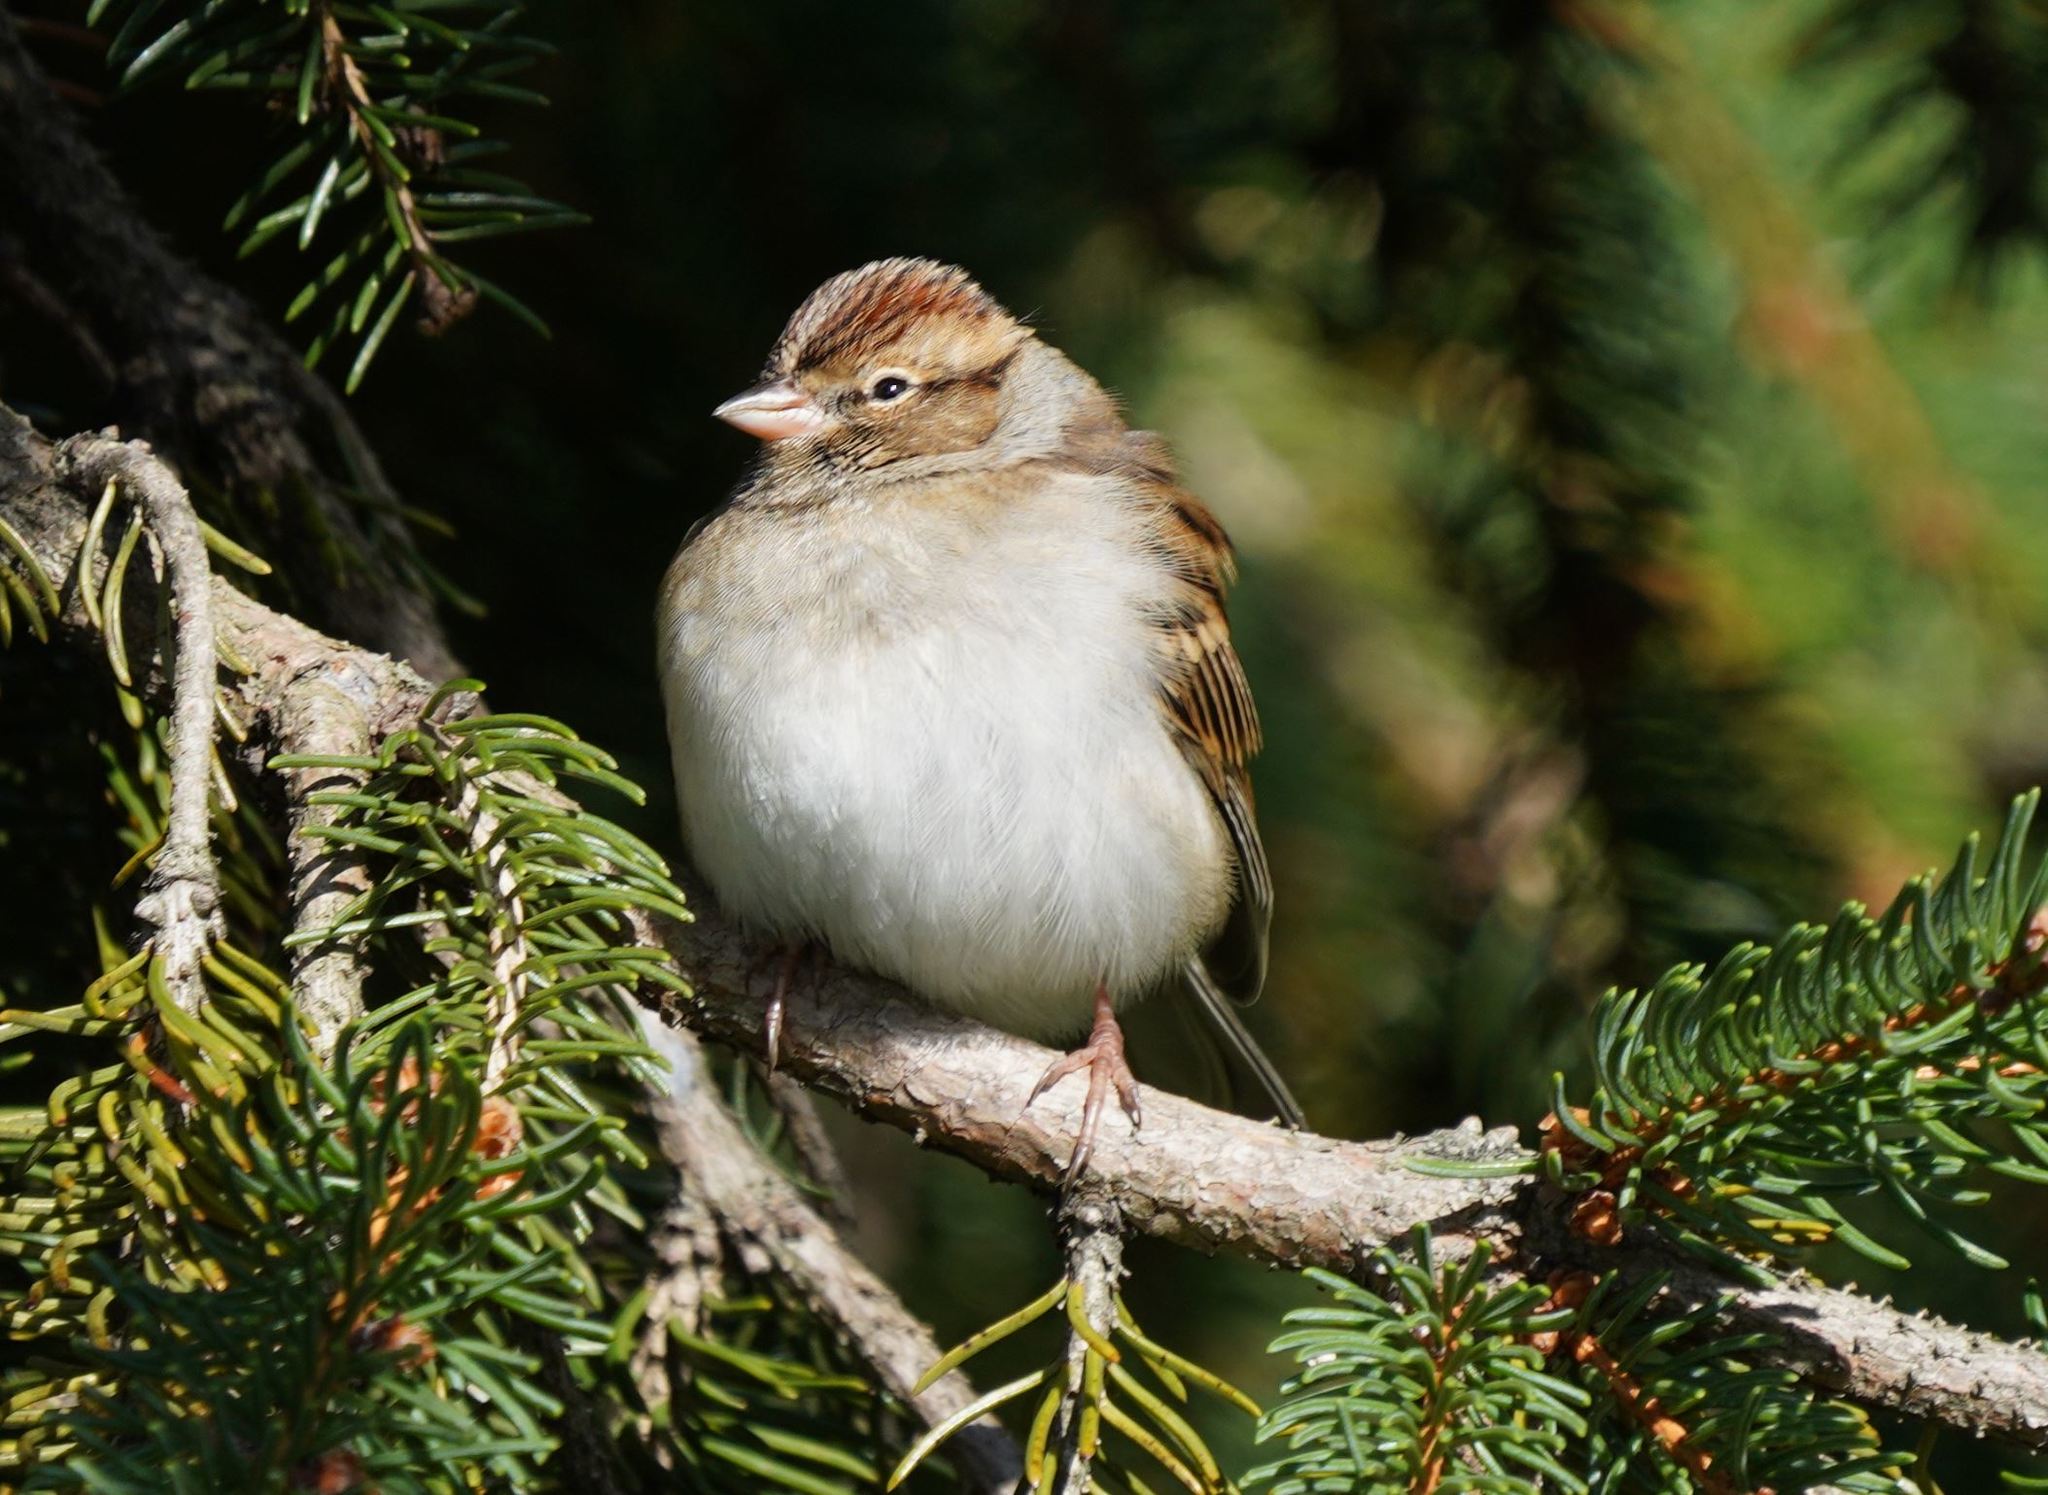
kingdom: Animalia
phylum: Chordata
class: Aves
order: Passeriformes
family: Passerellidae
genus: Spizella
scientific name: Spizella passerina
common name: Chipping sparrow
